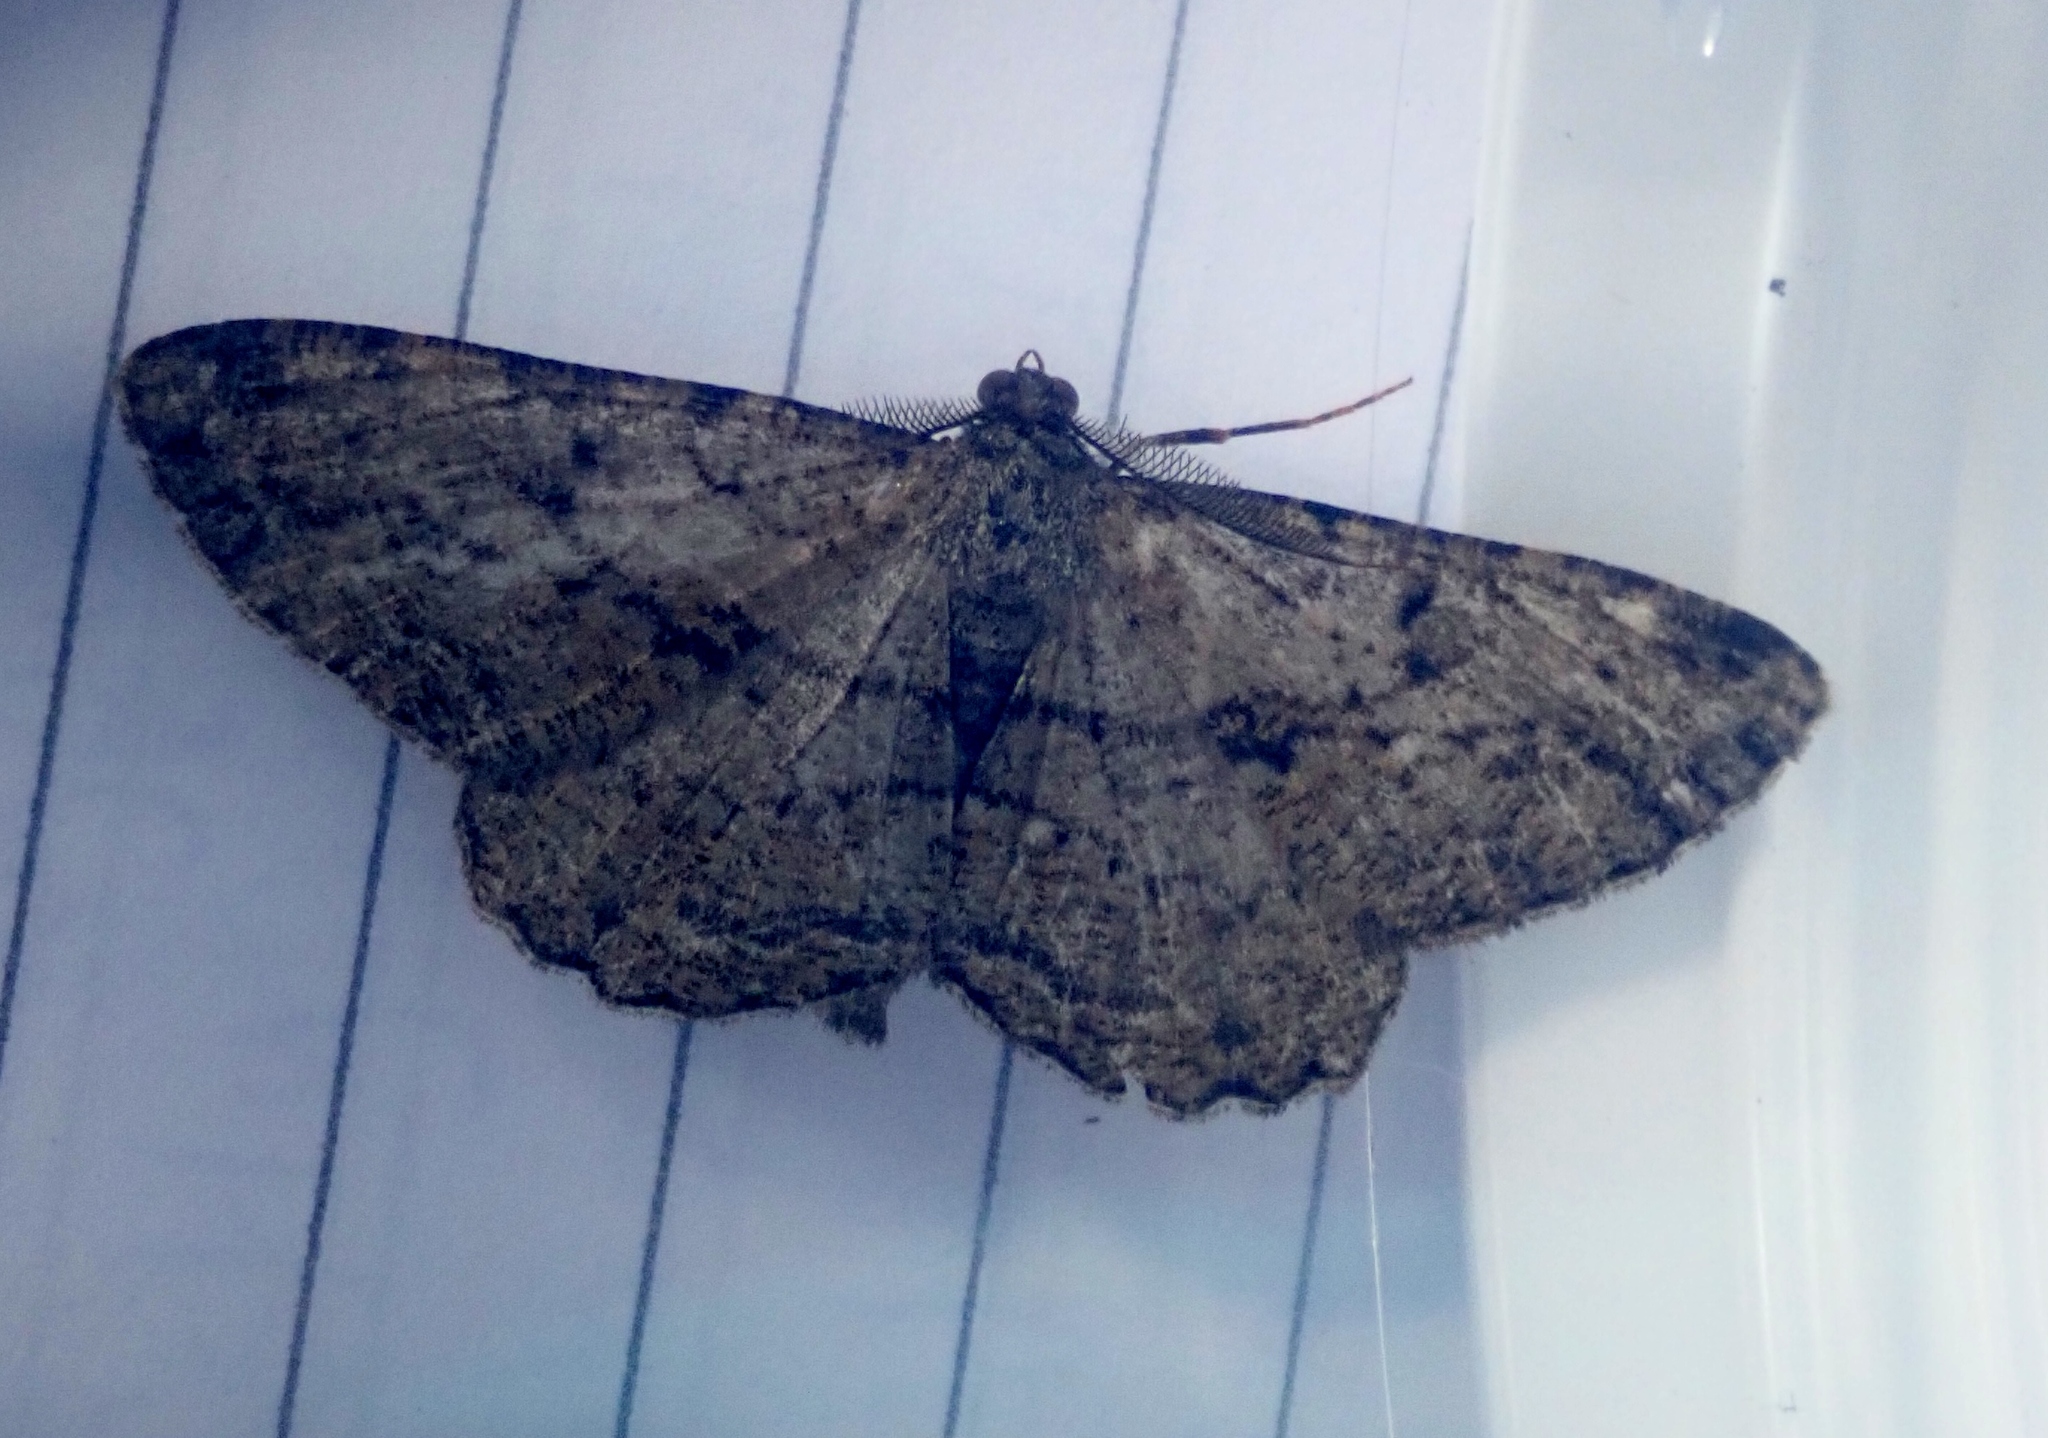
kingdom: Animalia
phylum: Arthropoda
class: Insecta
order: Lepidoptera
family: Geometridae
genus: Peribatodes
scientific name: Peribatodes rhomboidaria
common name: Willow beauty
